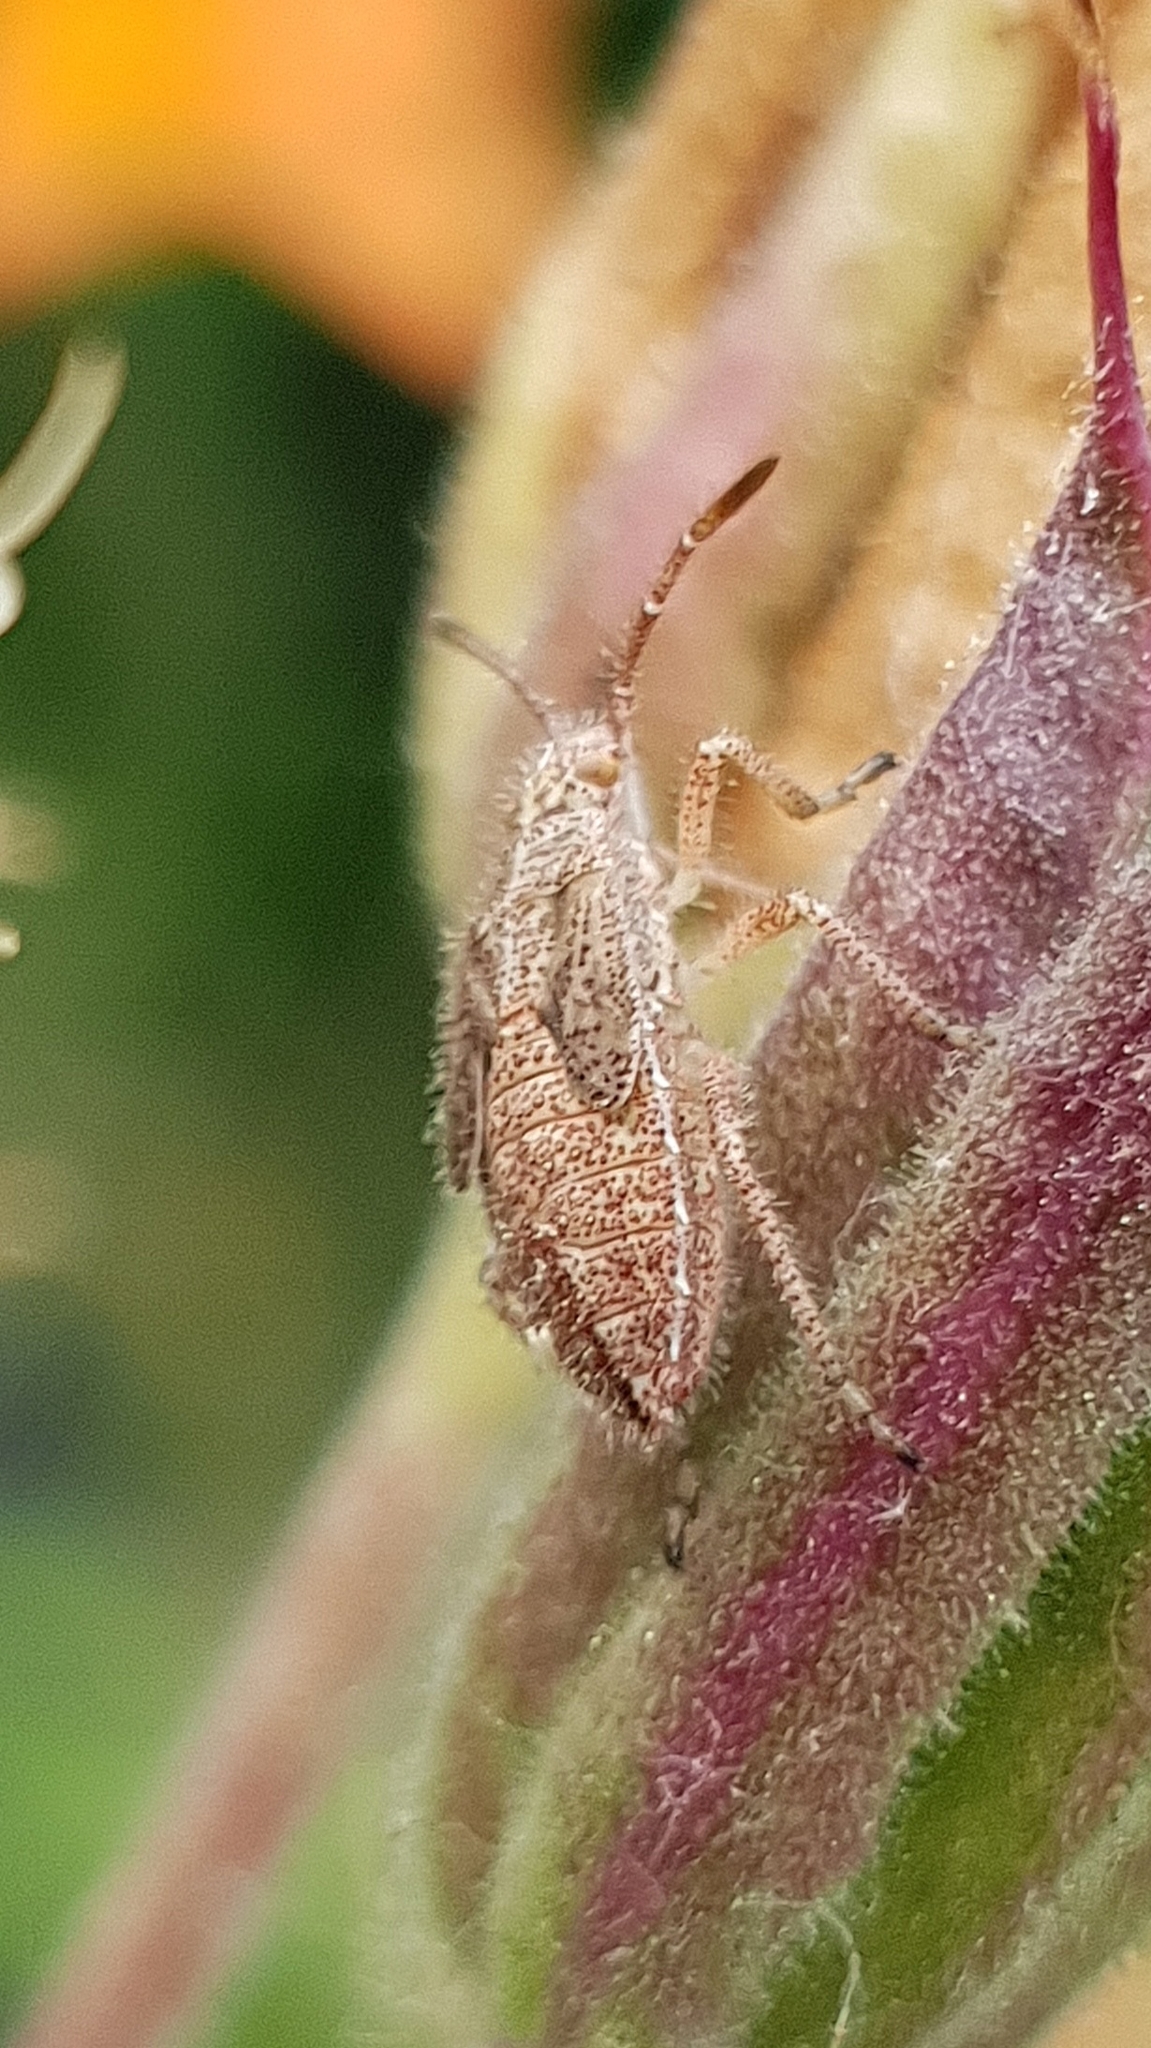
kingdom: Animalia
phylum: Arthropoda
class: Insecta
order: Hemiptera
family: Rhopalidae
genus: Corizus
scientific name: Corizus hyoscyami
